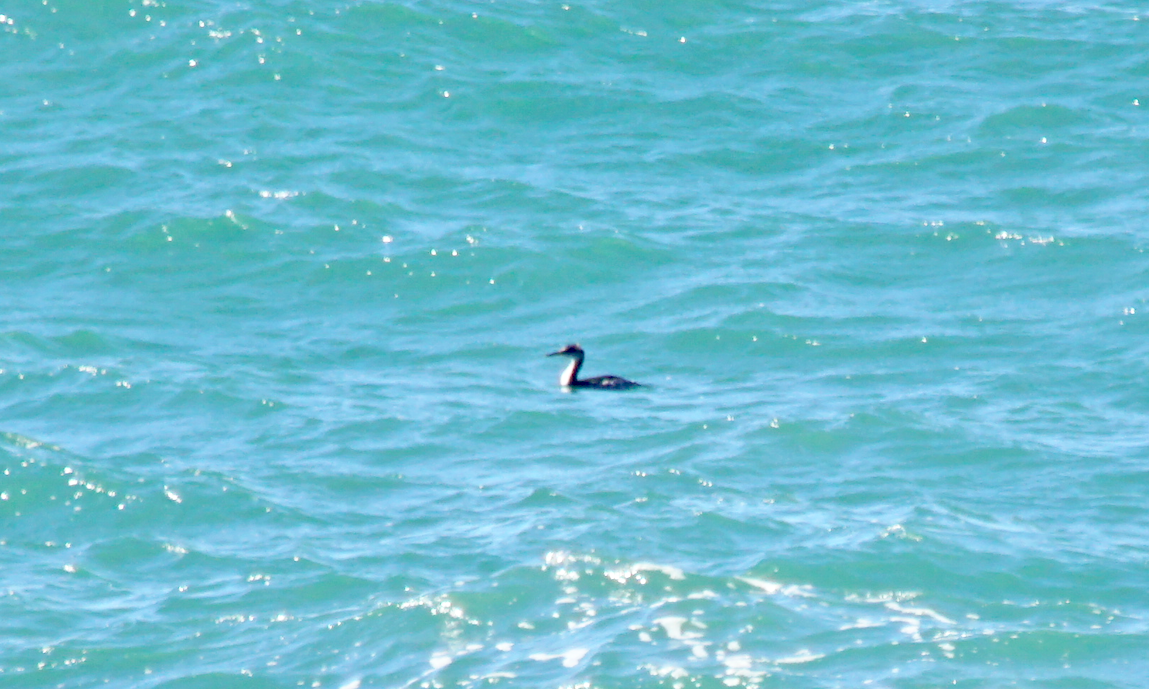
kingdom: Animalia
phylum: Chordata
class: Aves
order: Podicipediformes
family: Podicipedidae
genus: Podiceps
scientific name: Podiceps grisegena
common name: Red-necked grebe
